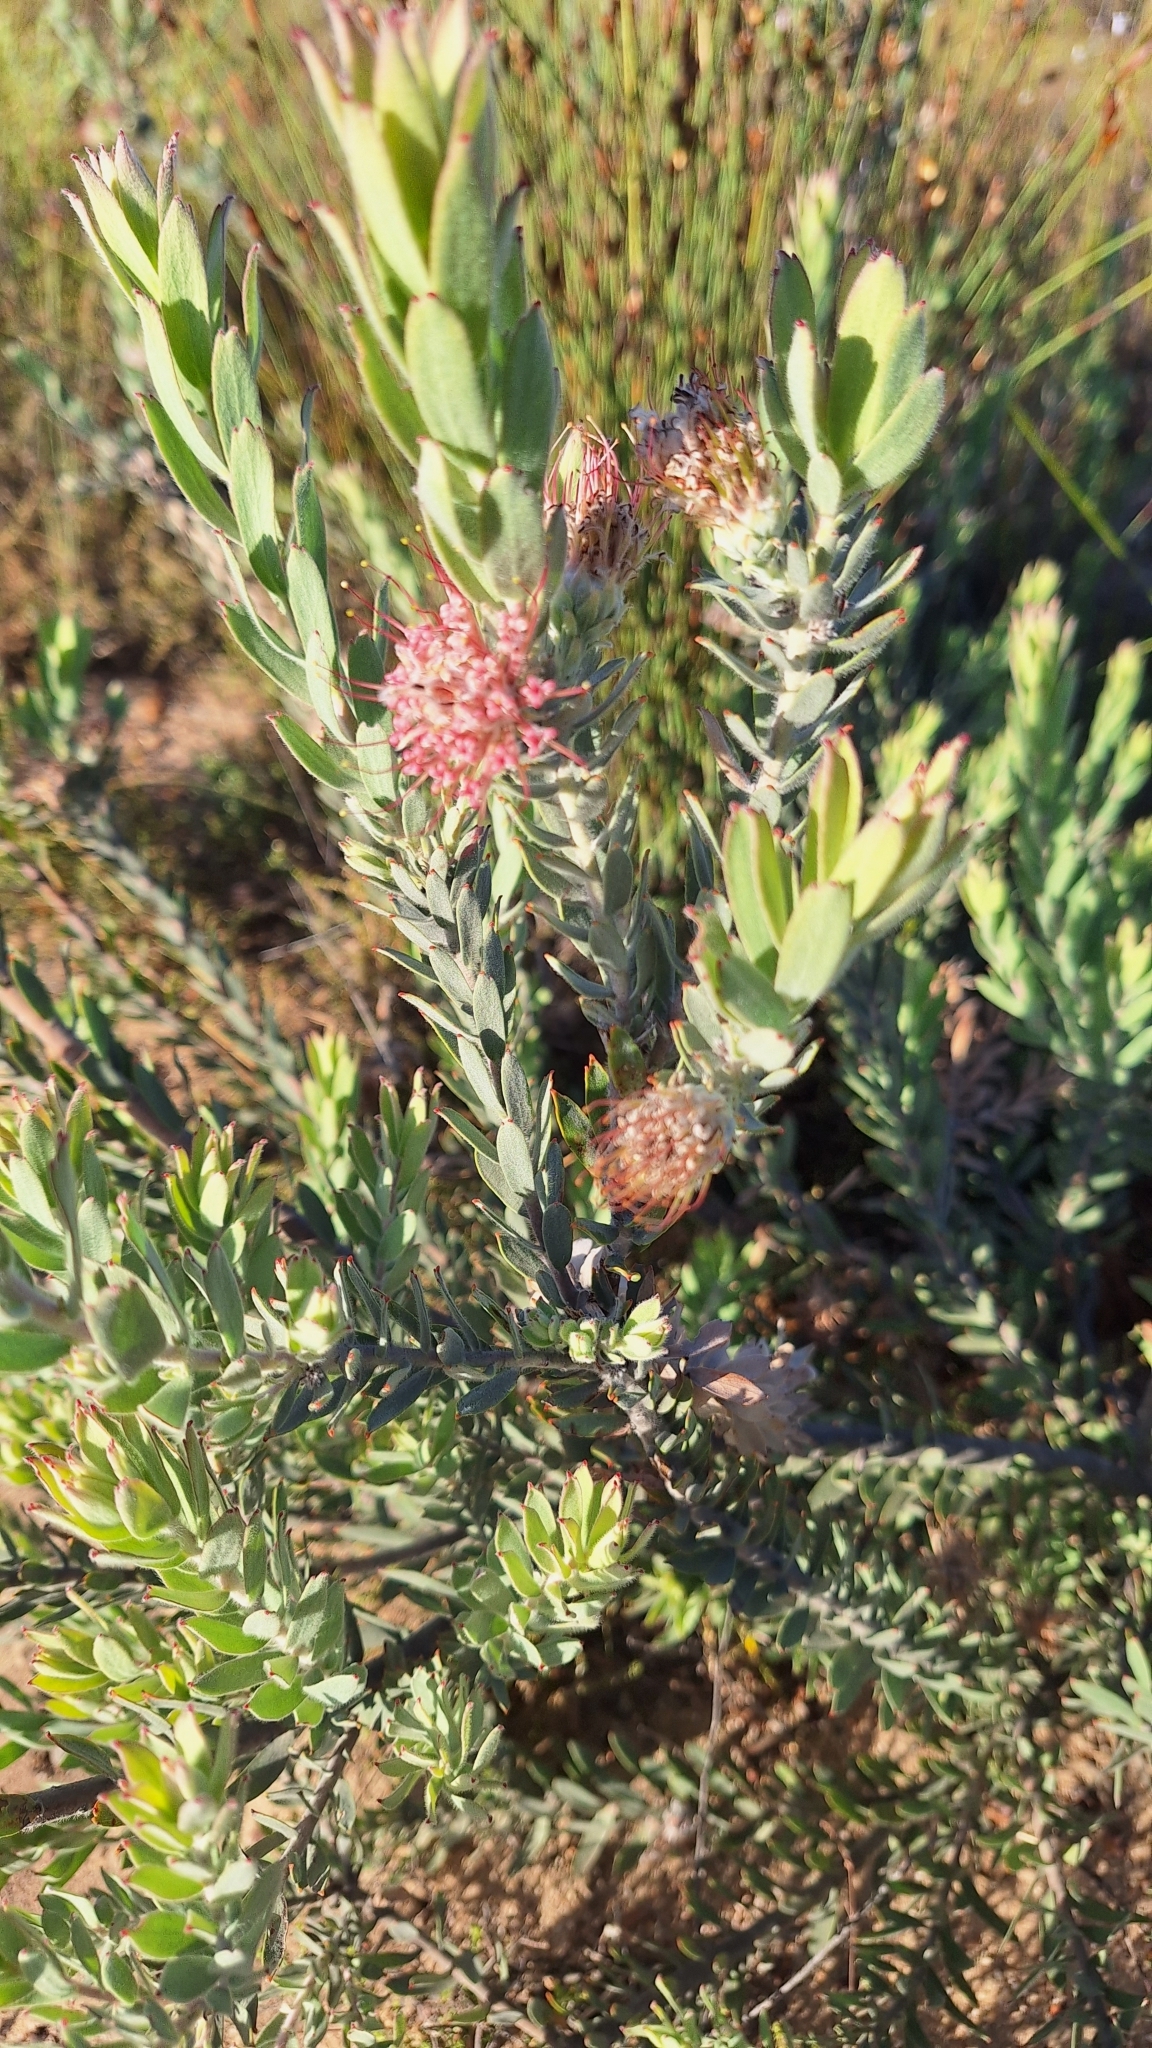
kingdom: Plantae
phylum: Tracheophyta
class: Magnoliopsida
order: Proteales
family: Proteaceae
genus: Leucospermum
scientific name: Leucospermum calligerum
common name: Arid pincushion
